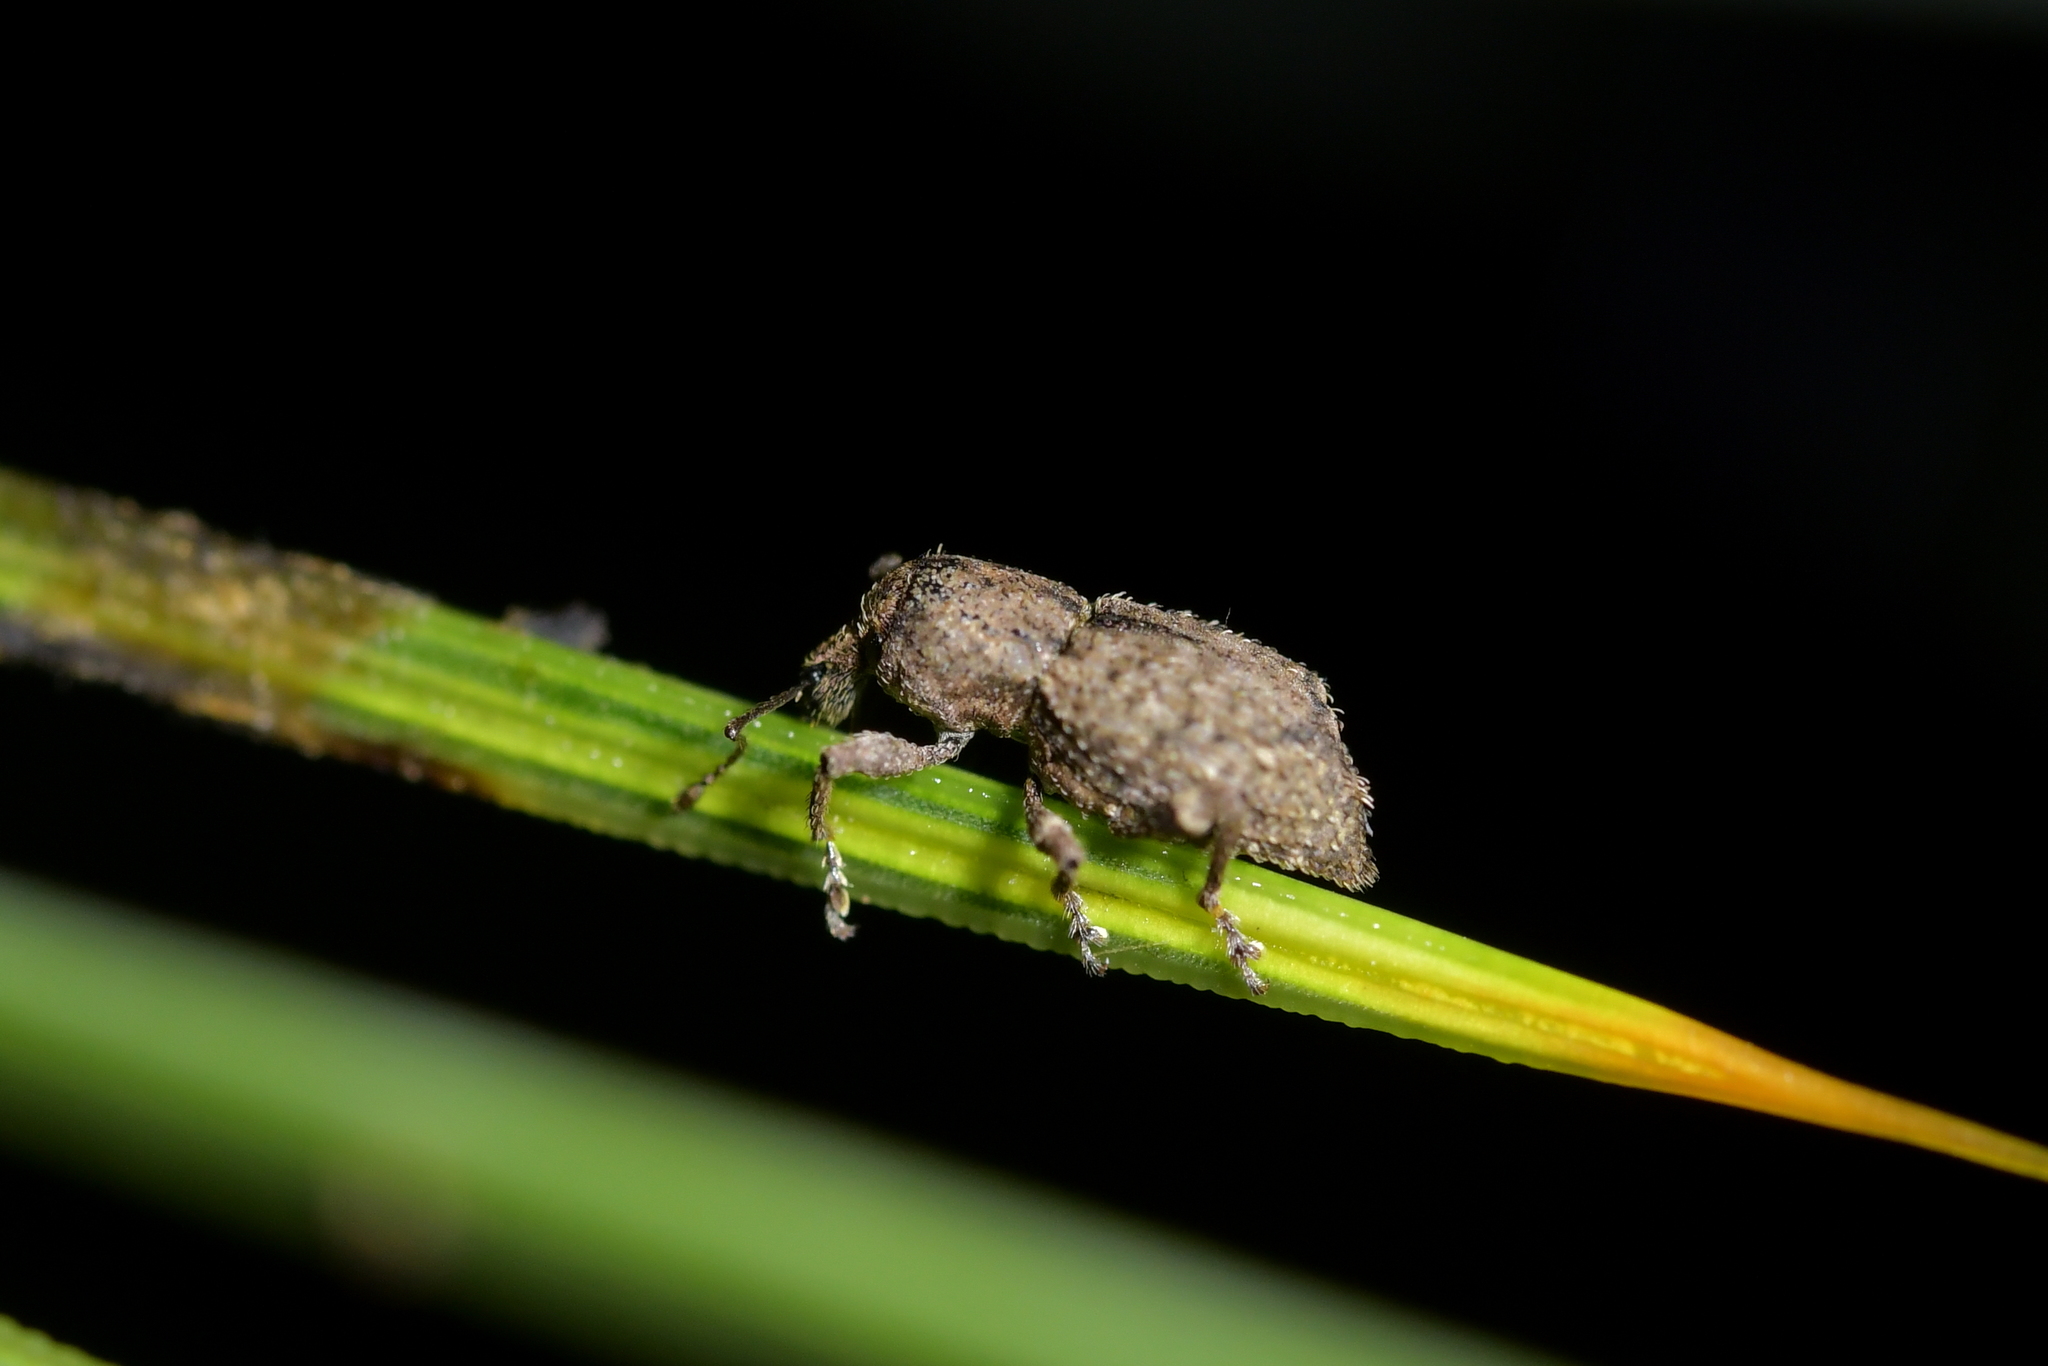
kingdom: Animalia
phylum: Arthropoda
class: Insecta
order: Coleoptera
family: Curculionidae
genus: Catoptes
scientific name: Catoptes constrictus
